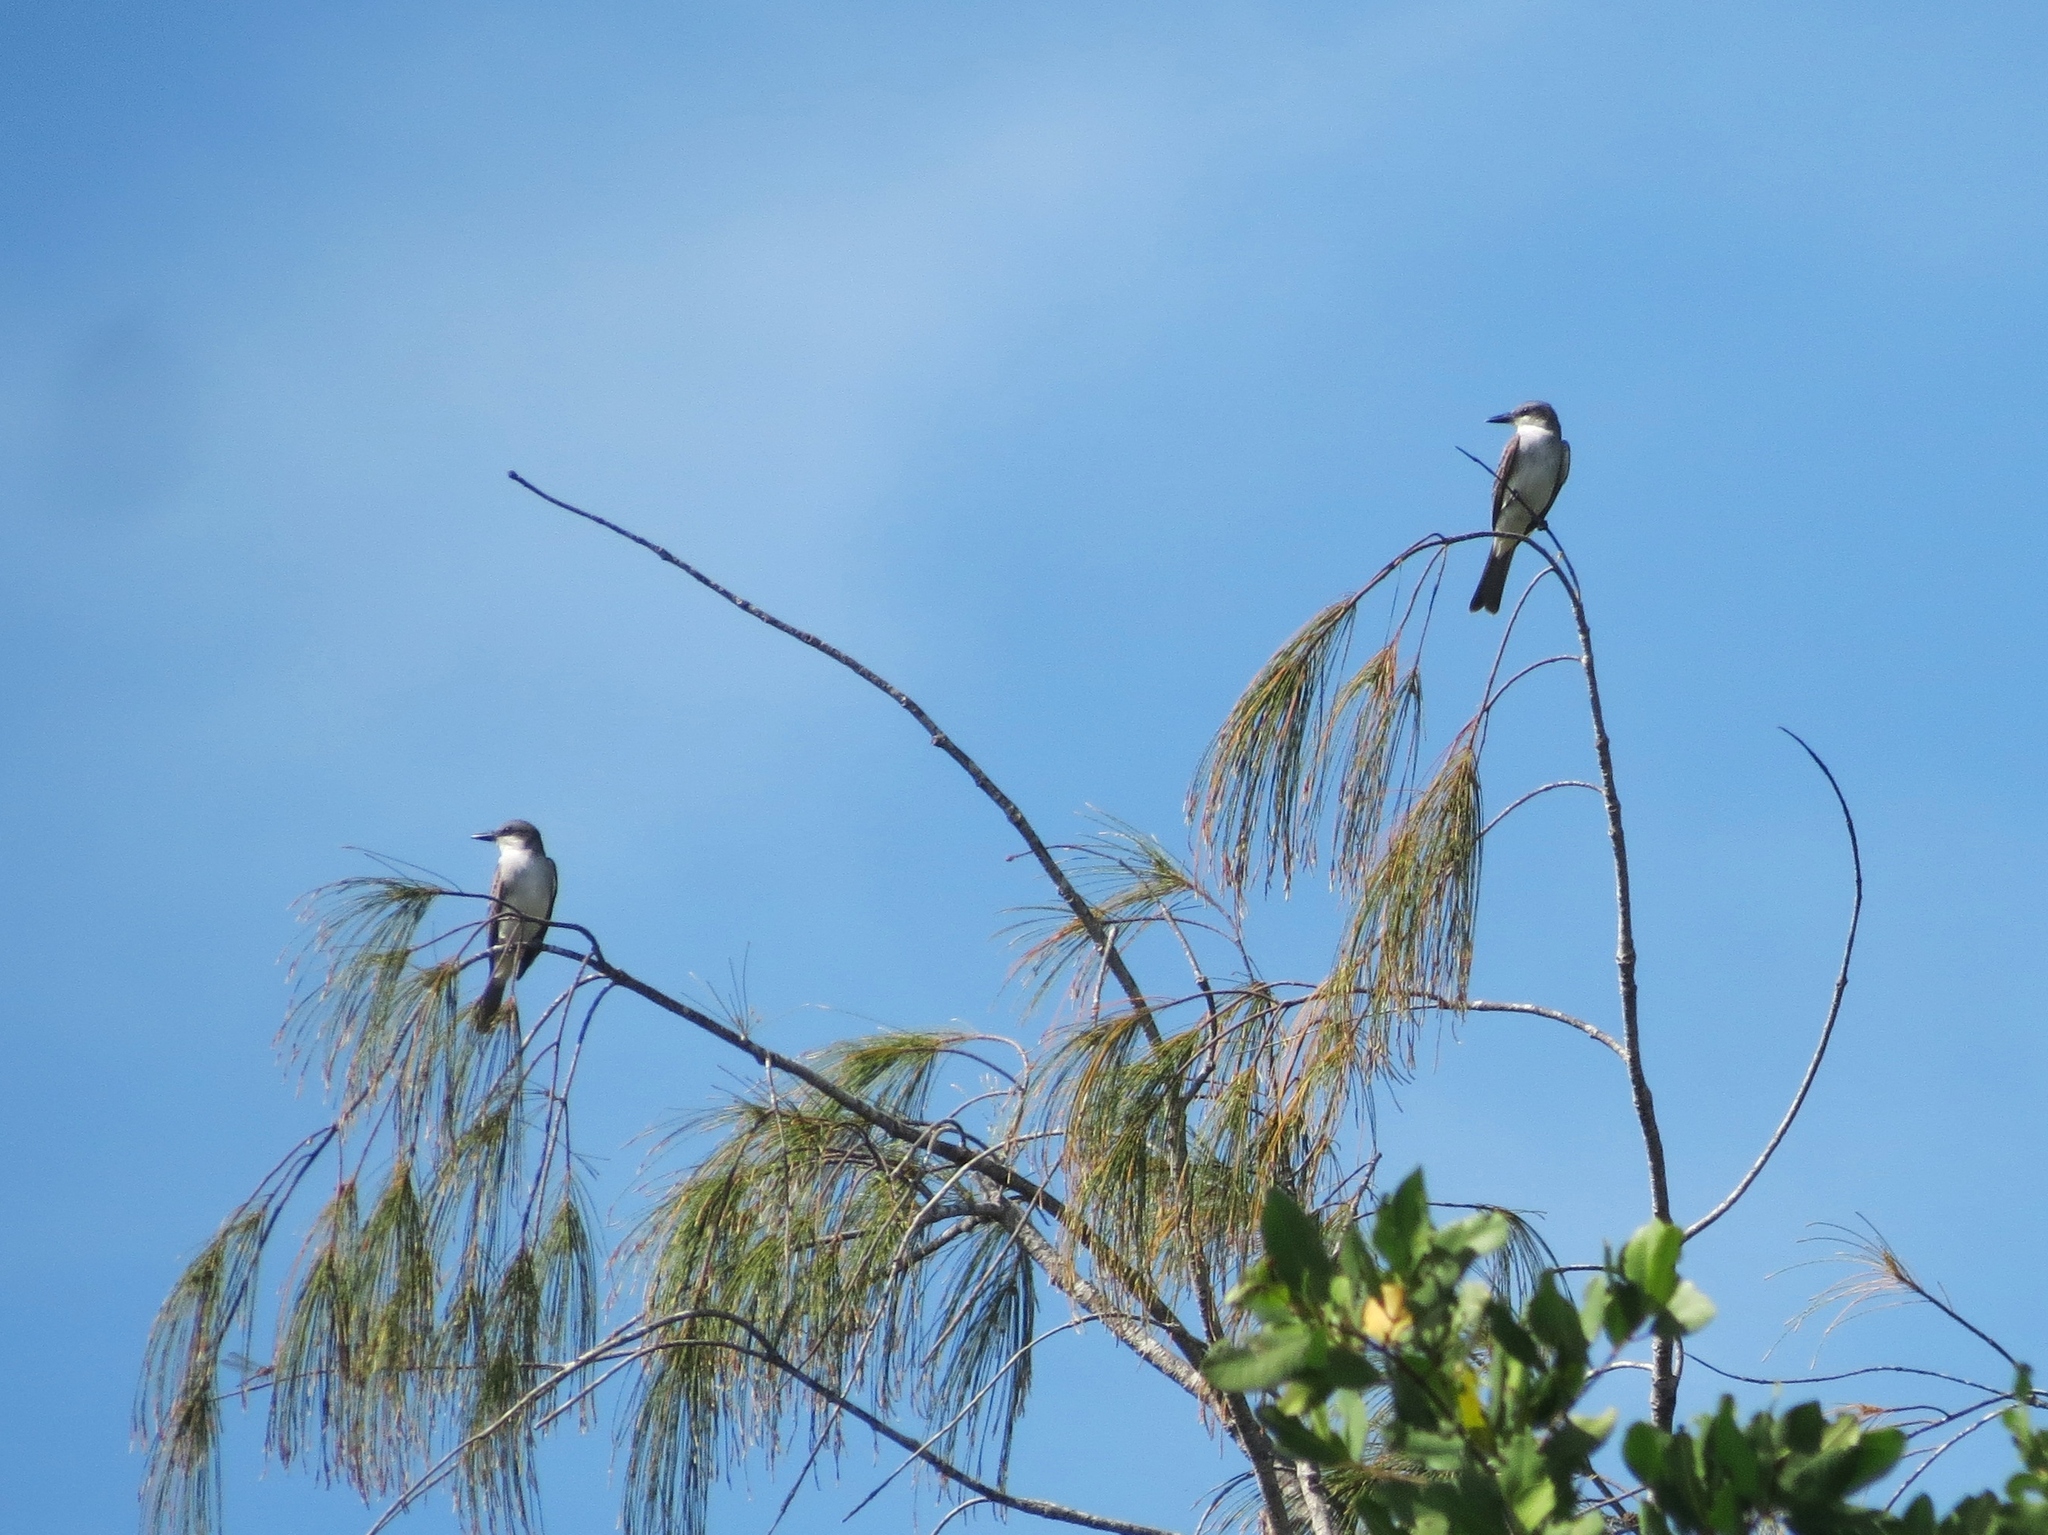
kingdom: Animalia
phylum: Chordata
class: Aves
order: Passeriformes
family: Tyrannidae
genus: Tyrannus
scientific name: Tyrannus dominicensis
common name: Gray kingbird
